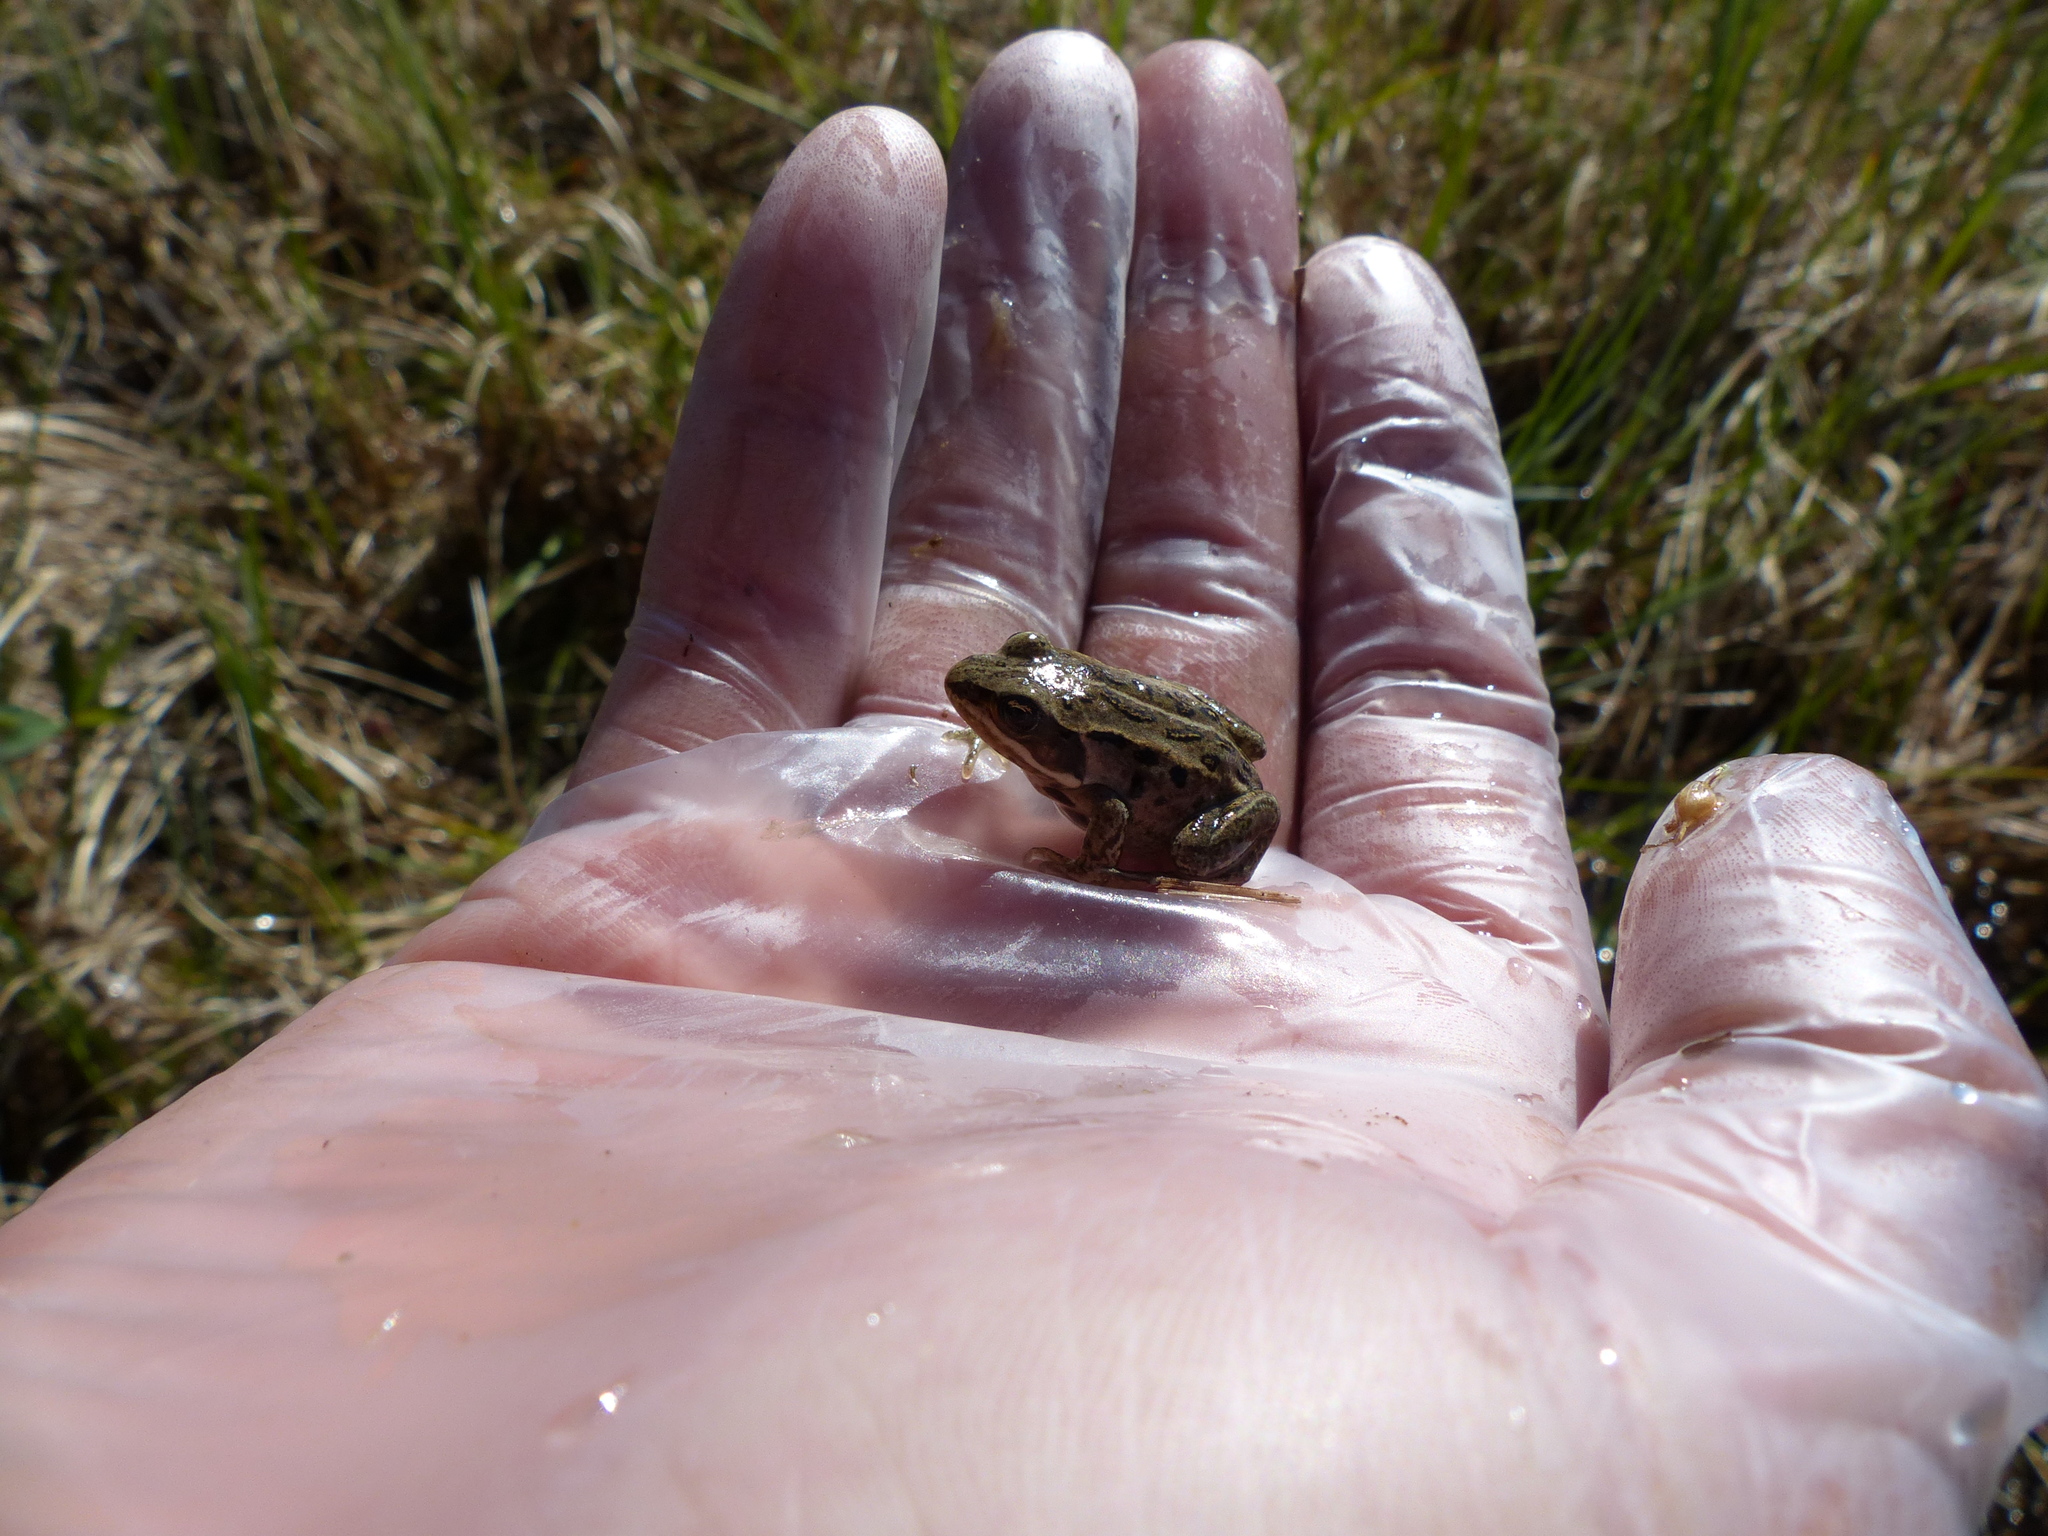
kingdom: Animalia
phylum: Chordata
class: Amphibia
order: Anura
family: Ranidae
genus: Lithobates
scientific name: Lithobates sylvaticus
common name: Wood frog
